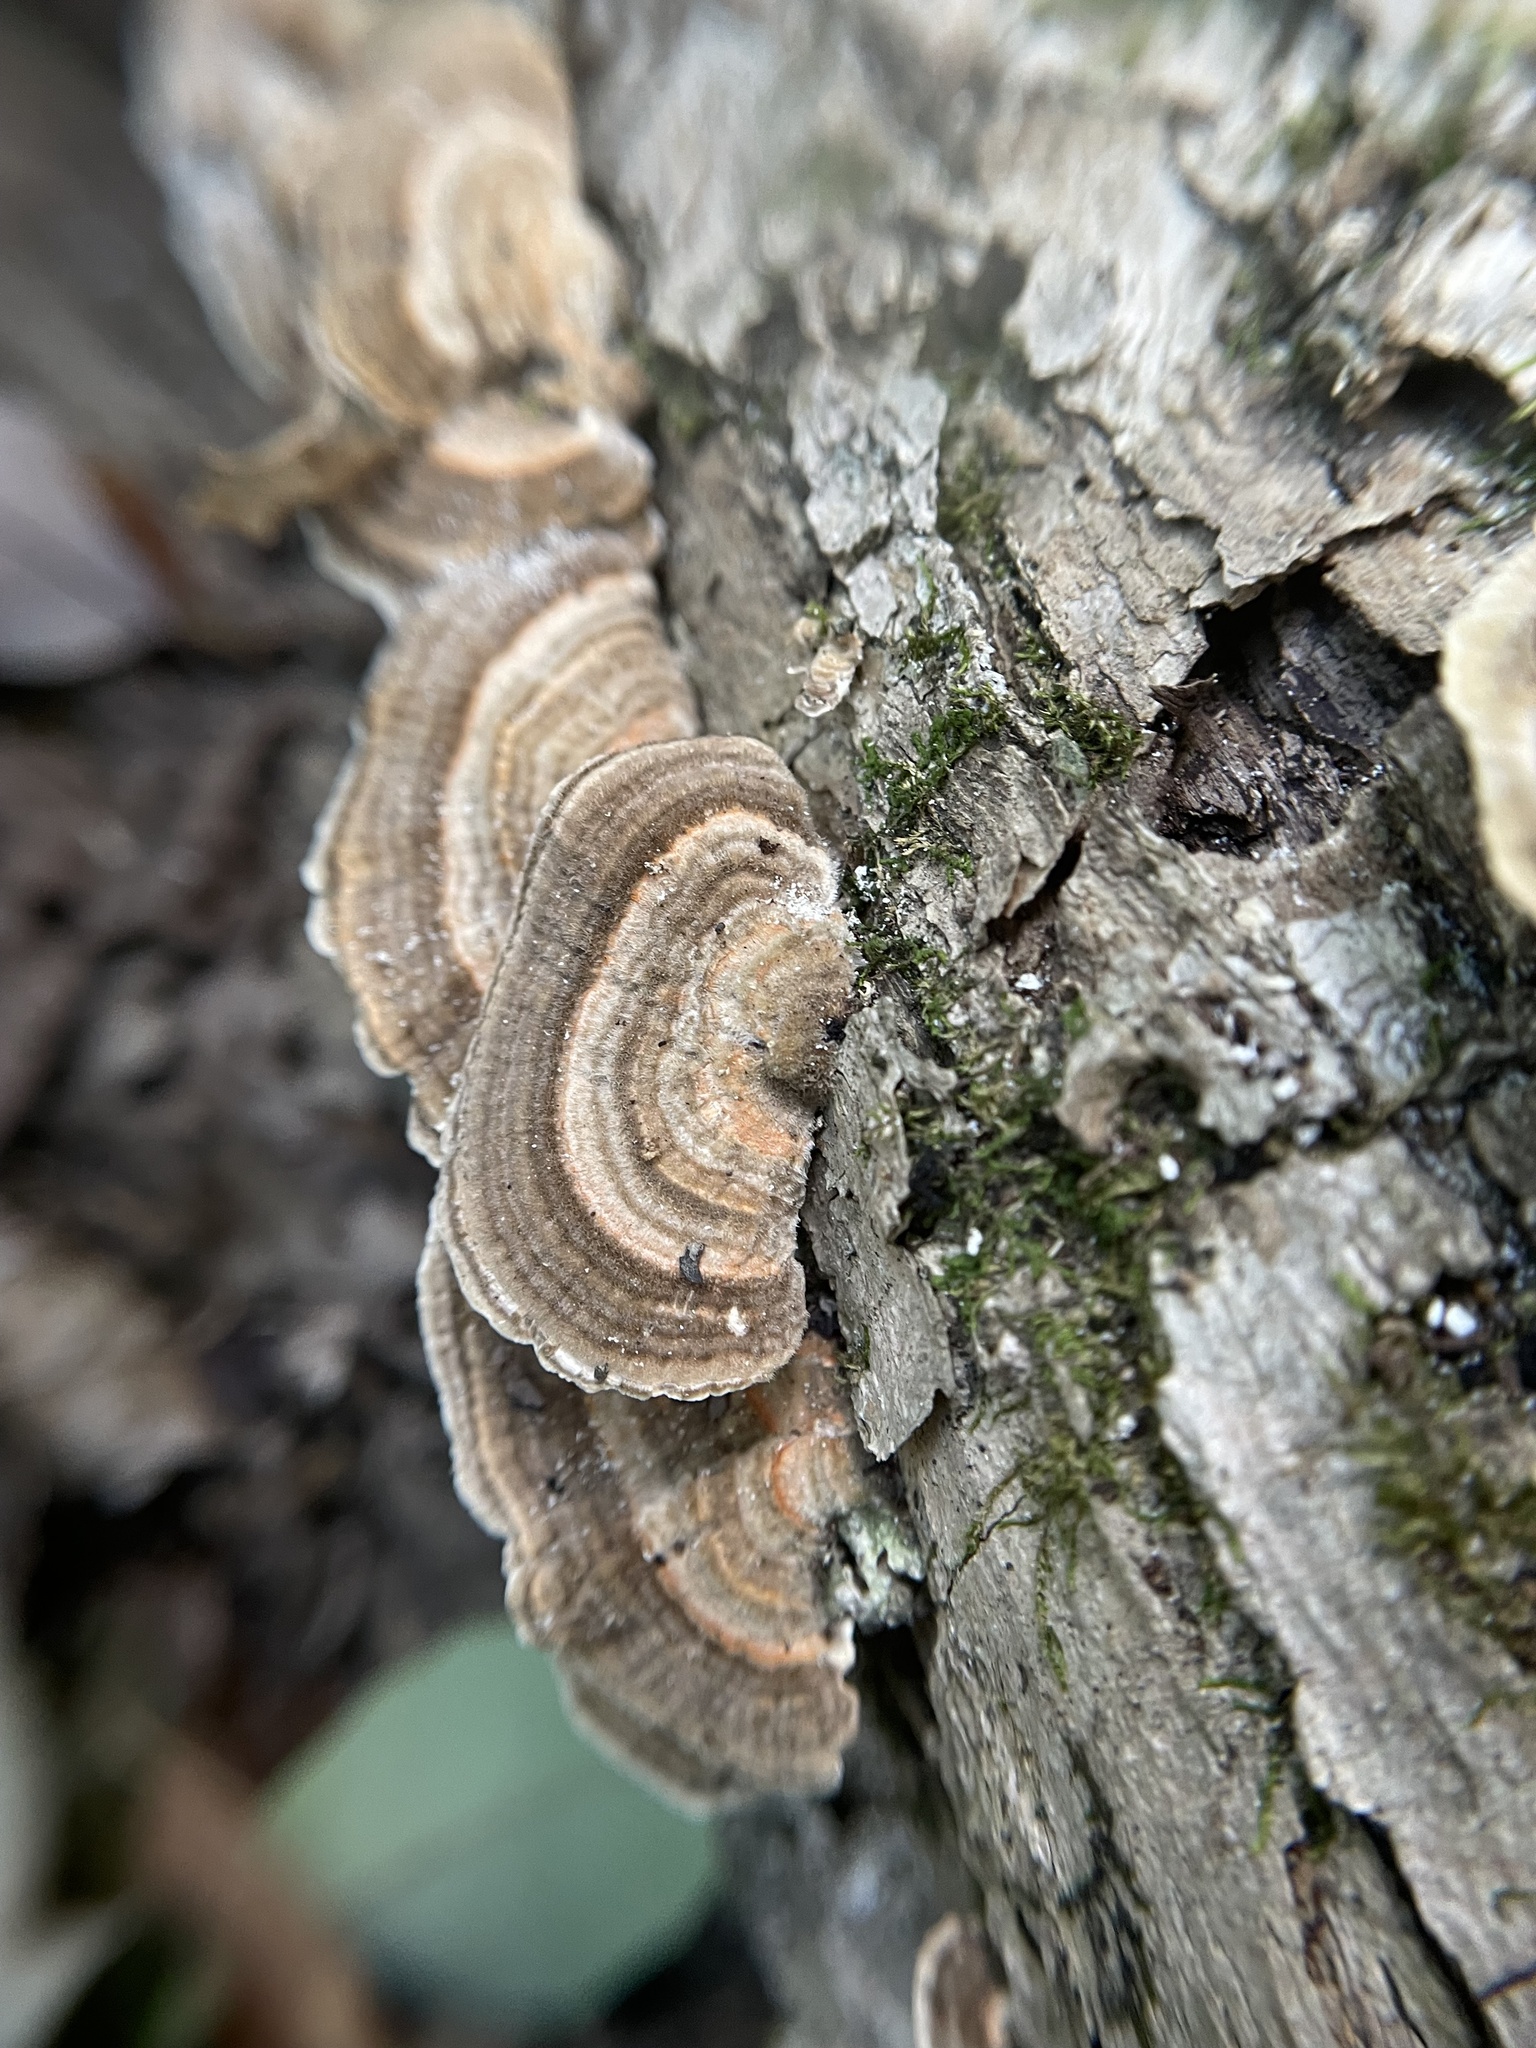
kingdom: Fungi
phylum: Basidiomycota
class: Agaricomycetes
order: Polyporales
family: Polyporaceae
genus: Lenzites
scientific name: Lenzites betulinus
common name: Birch mazegill
